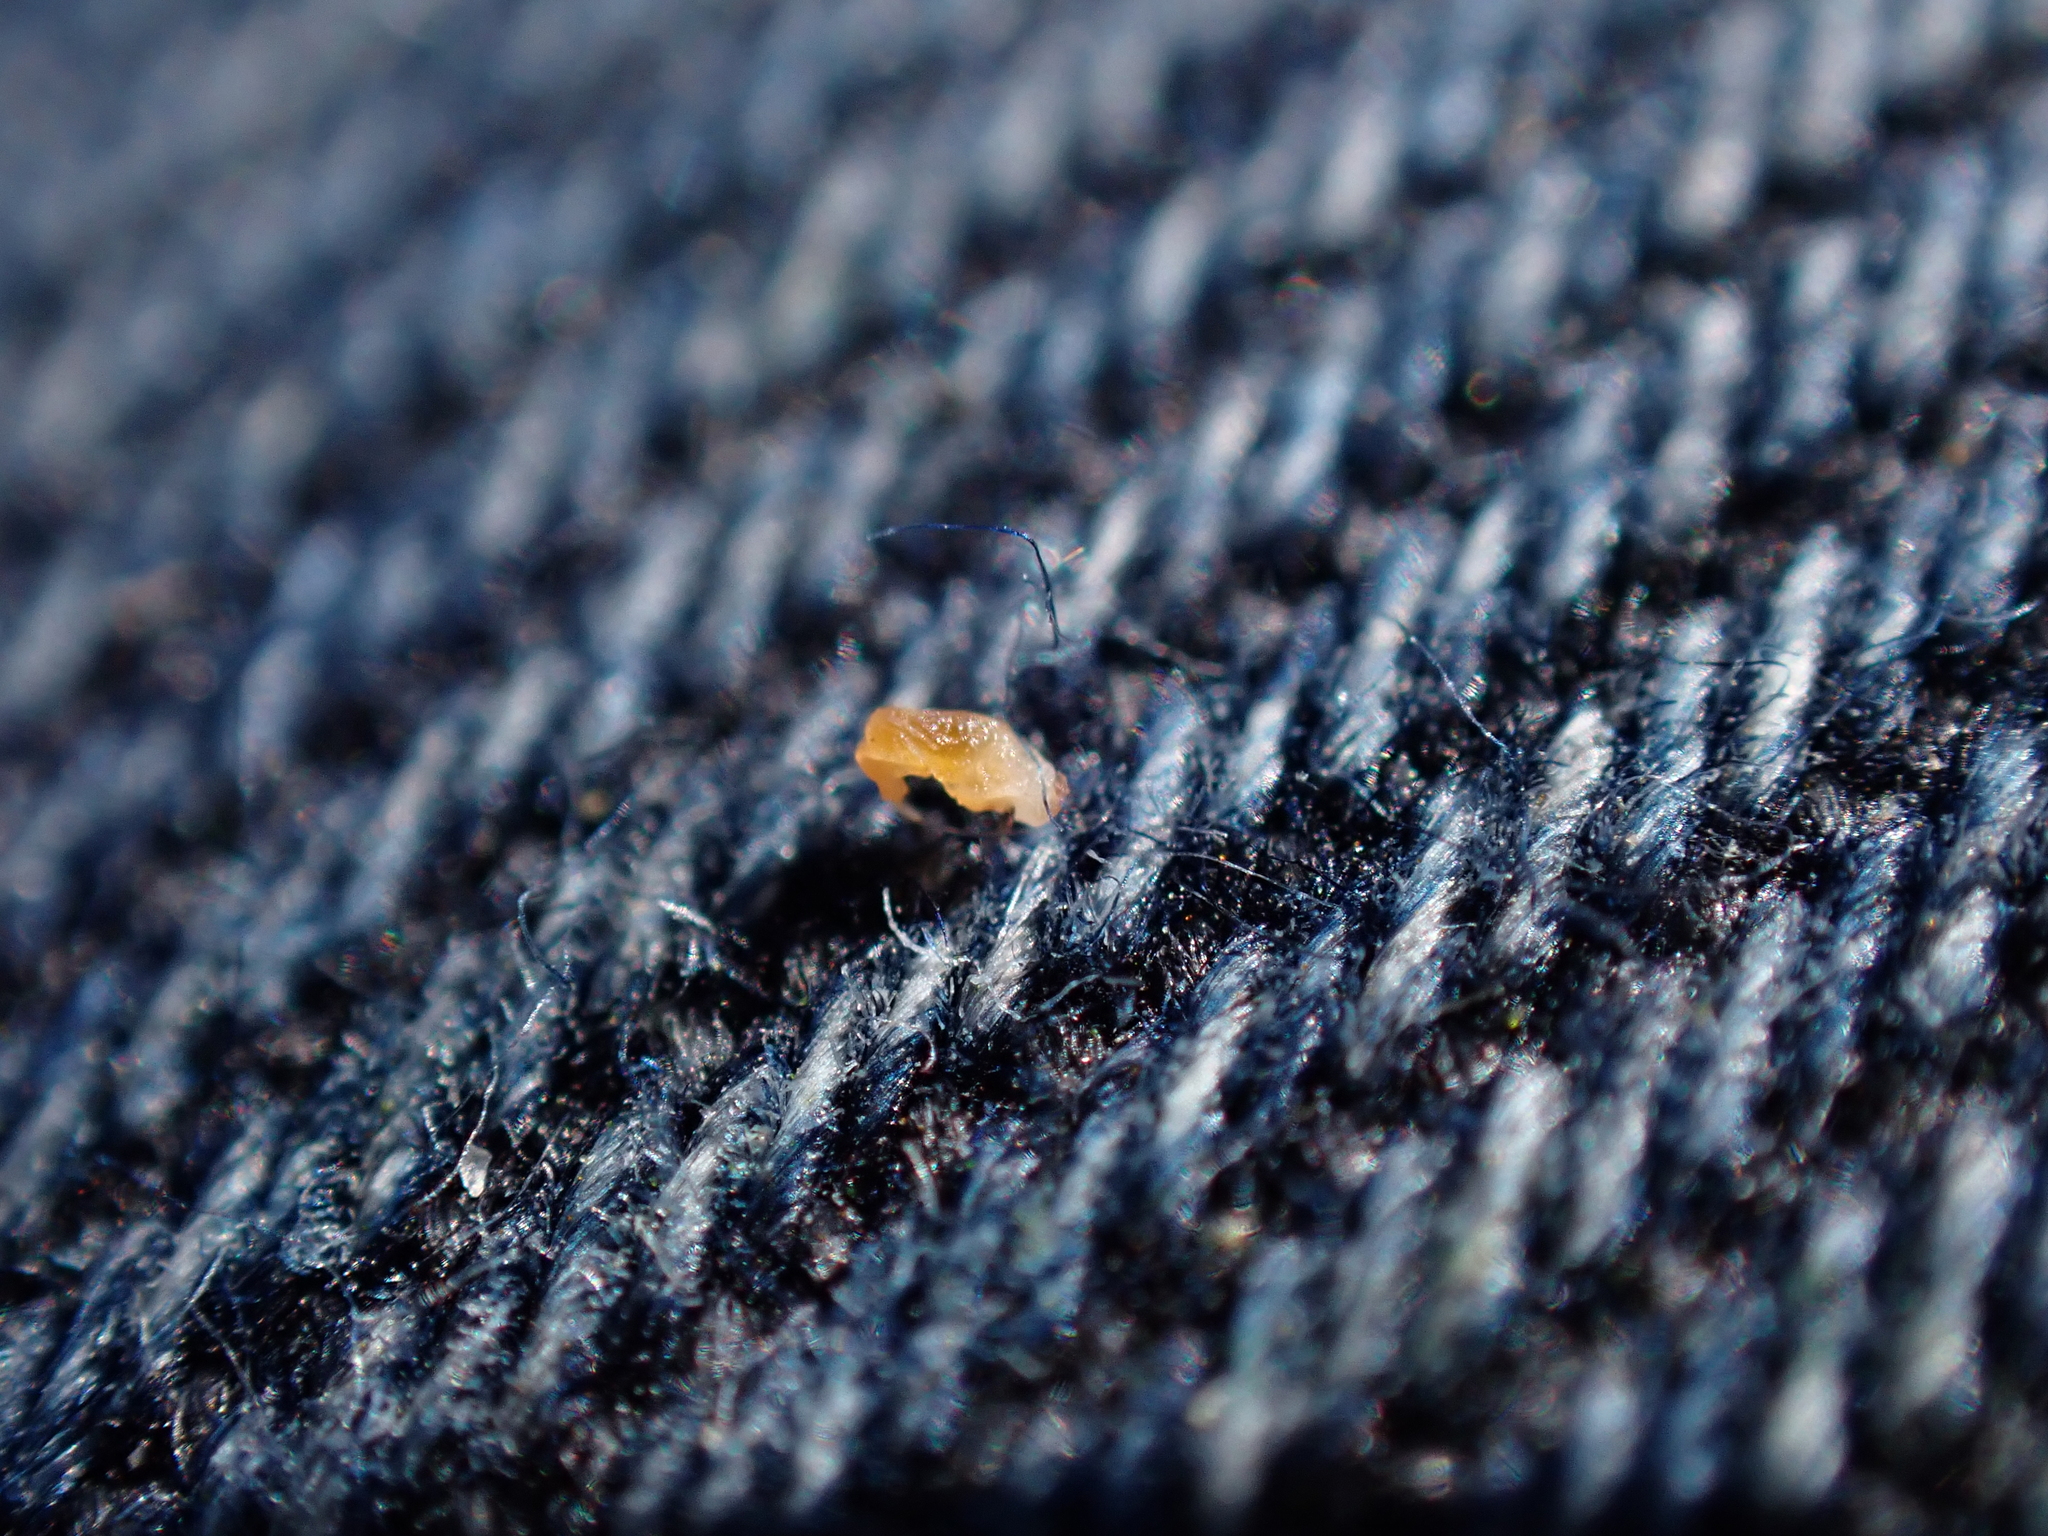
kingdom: Animalia
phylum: Arthropoda
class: Insecta
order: Diptera
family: Cecidomyiidae
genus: Jaapiella
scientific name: Jaapiella genisticola
